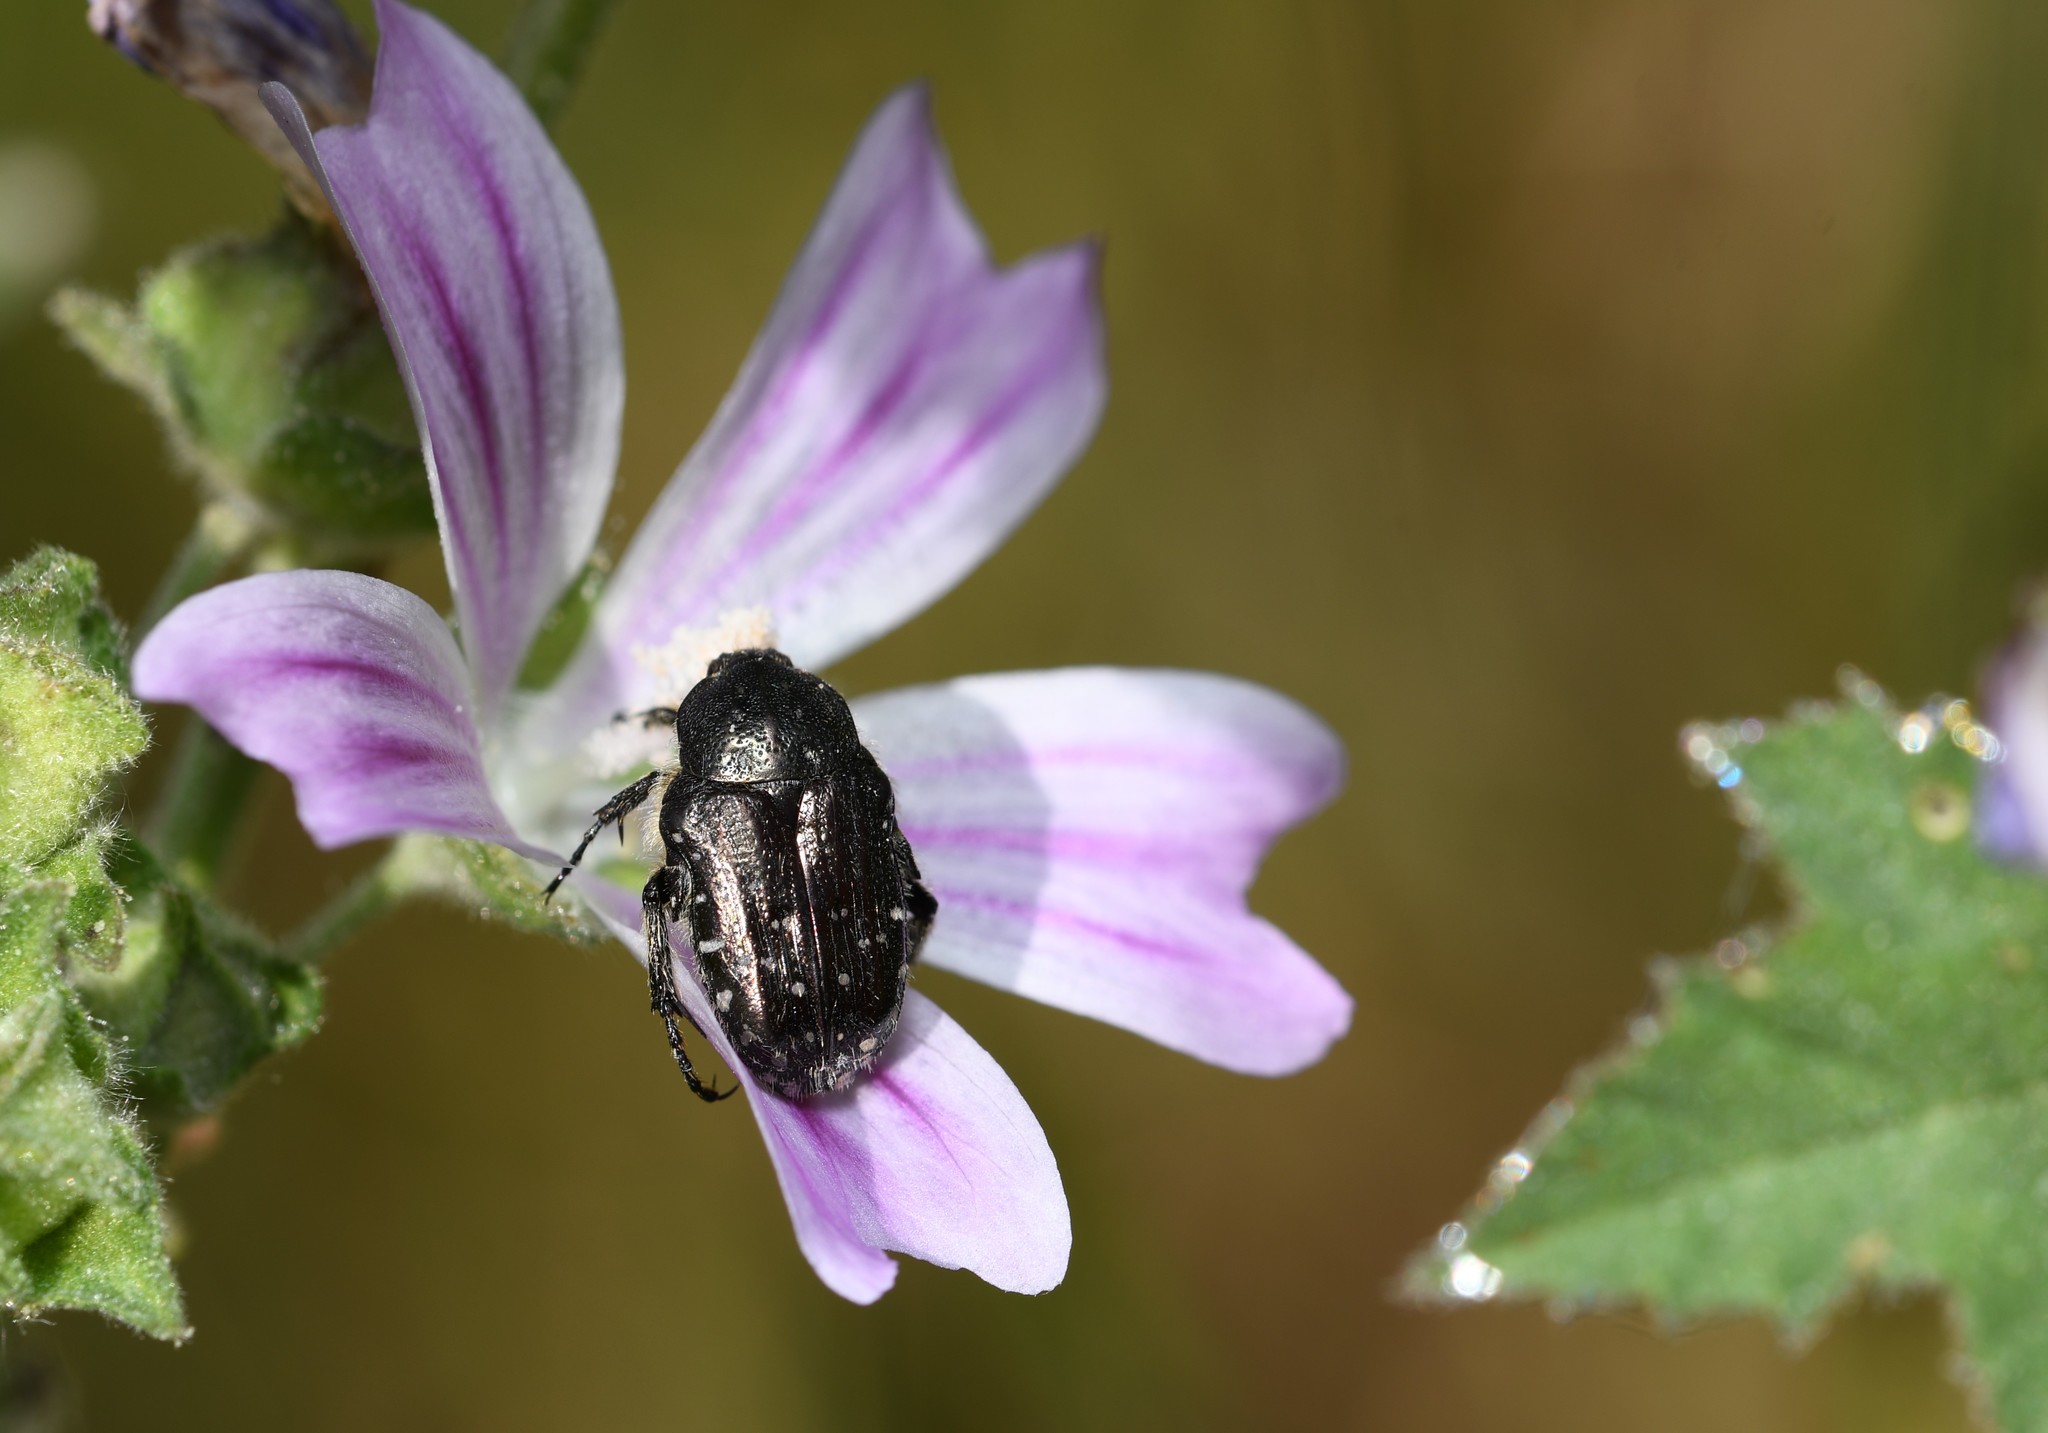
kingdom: Animalia
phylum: Arthropoda
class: Insecta
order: Coleoptera
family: Scarabaeidae
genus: Oxythyrea
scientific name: Oxythyrea funesta
